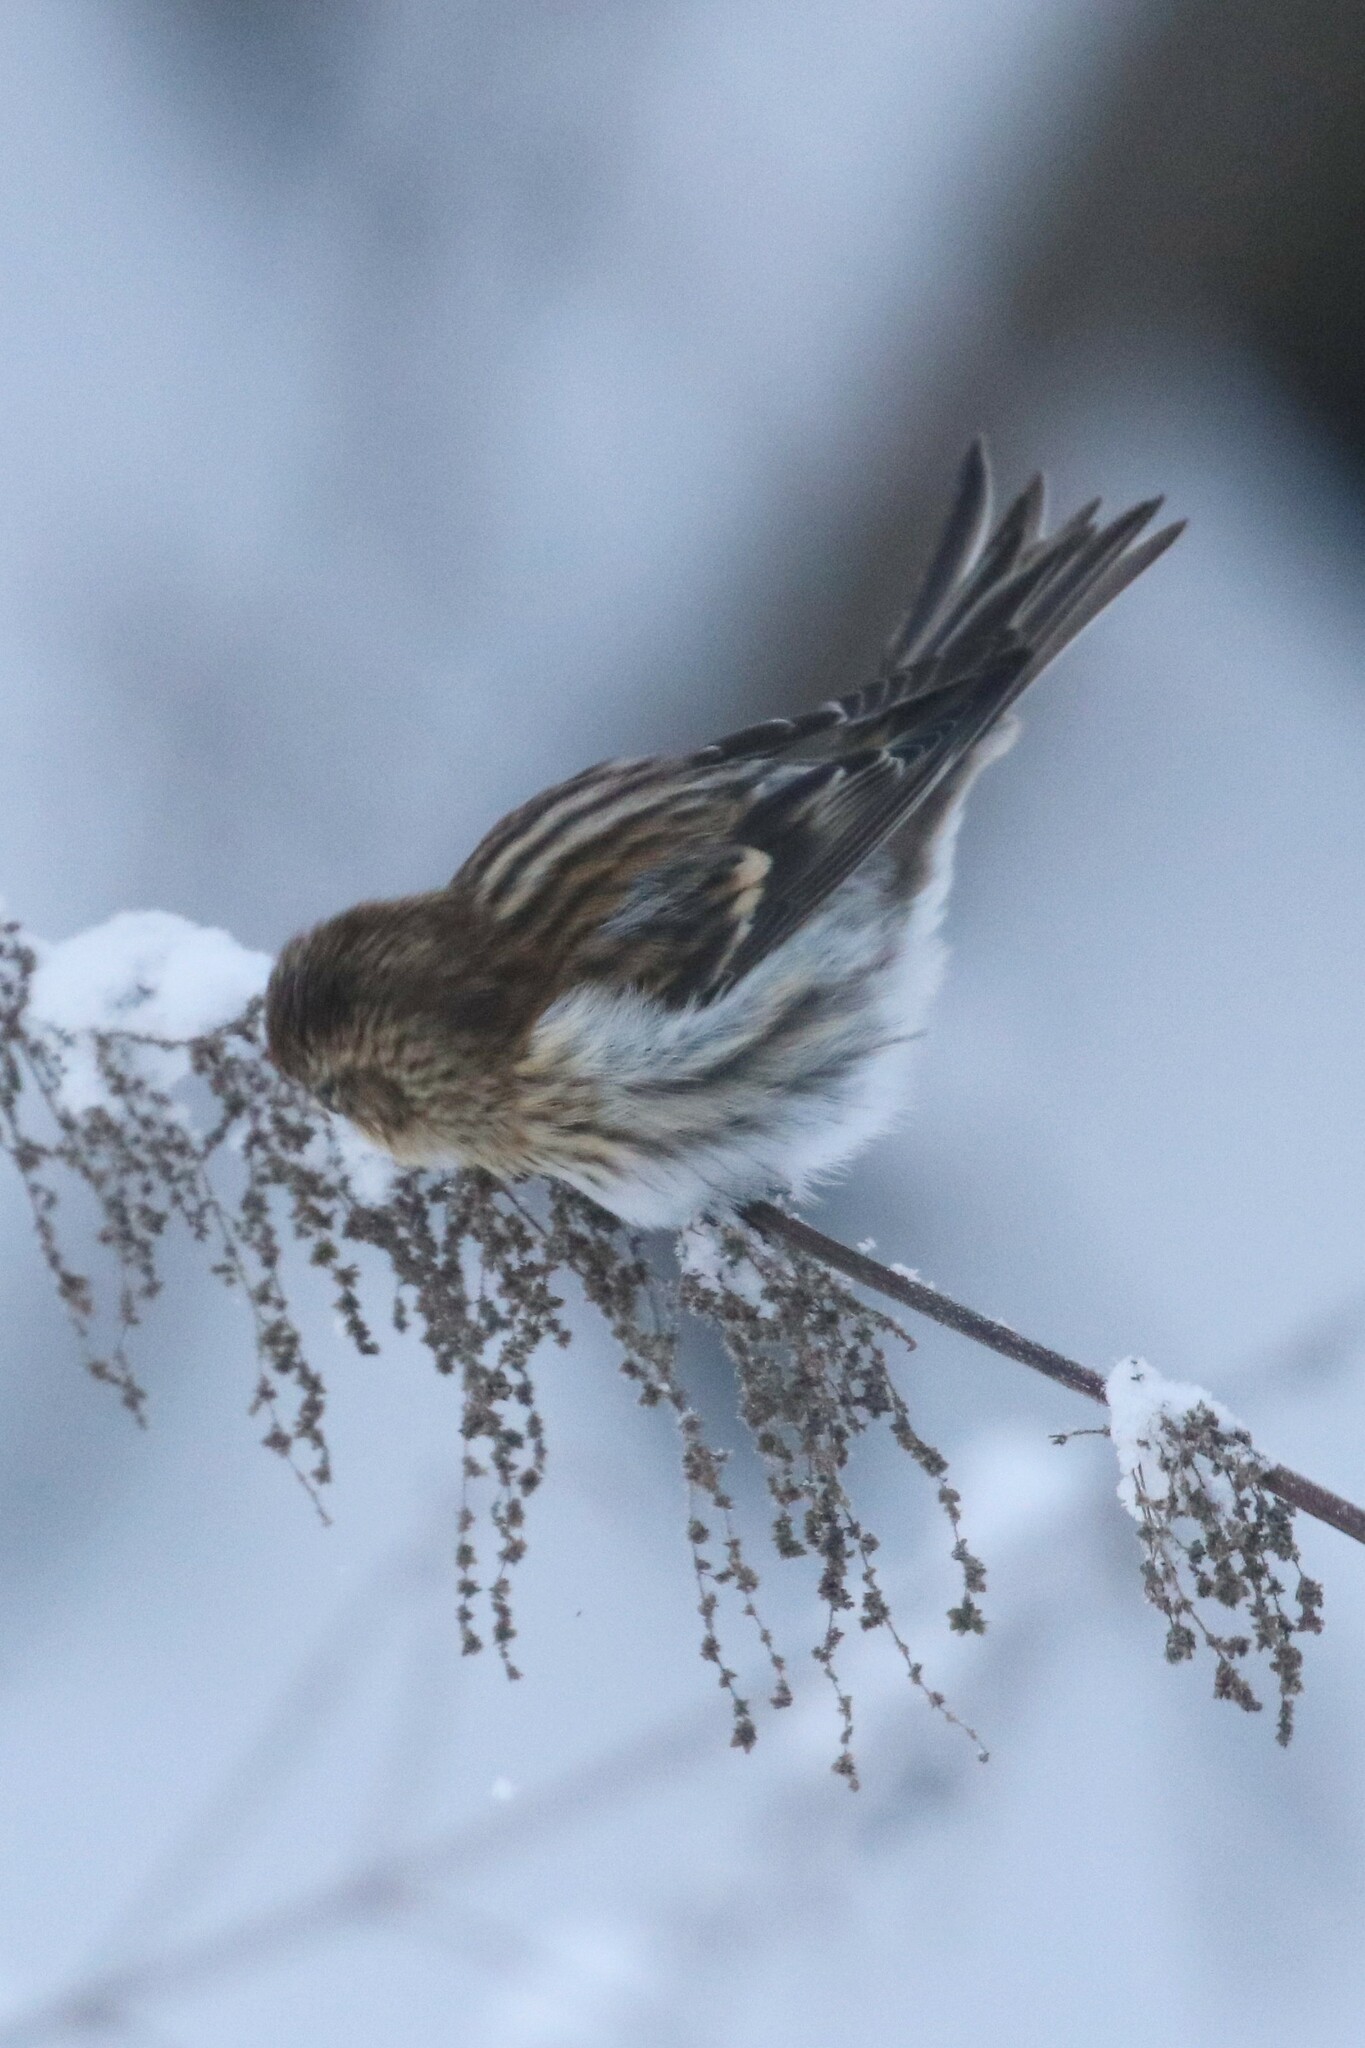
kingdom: Animalia
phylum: Chordata
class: Aves
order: Passeriformes
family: Fringillidae
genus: Acanthis
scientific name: Acanthis flammea
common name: Common redpoll
